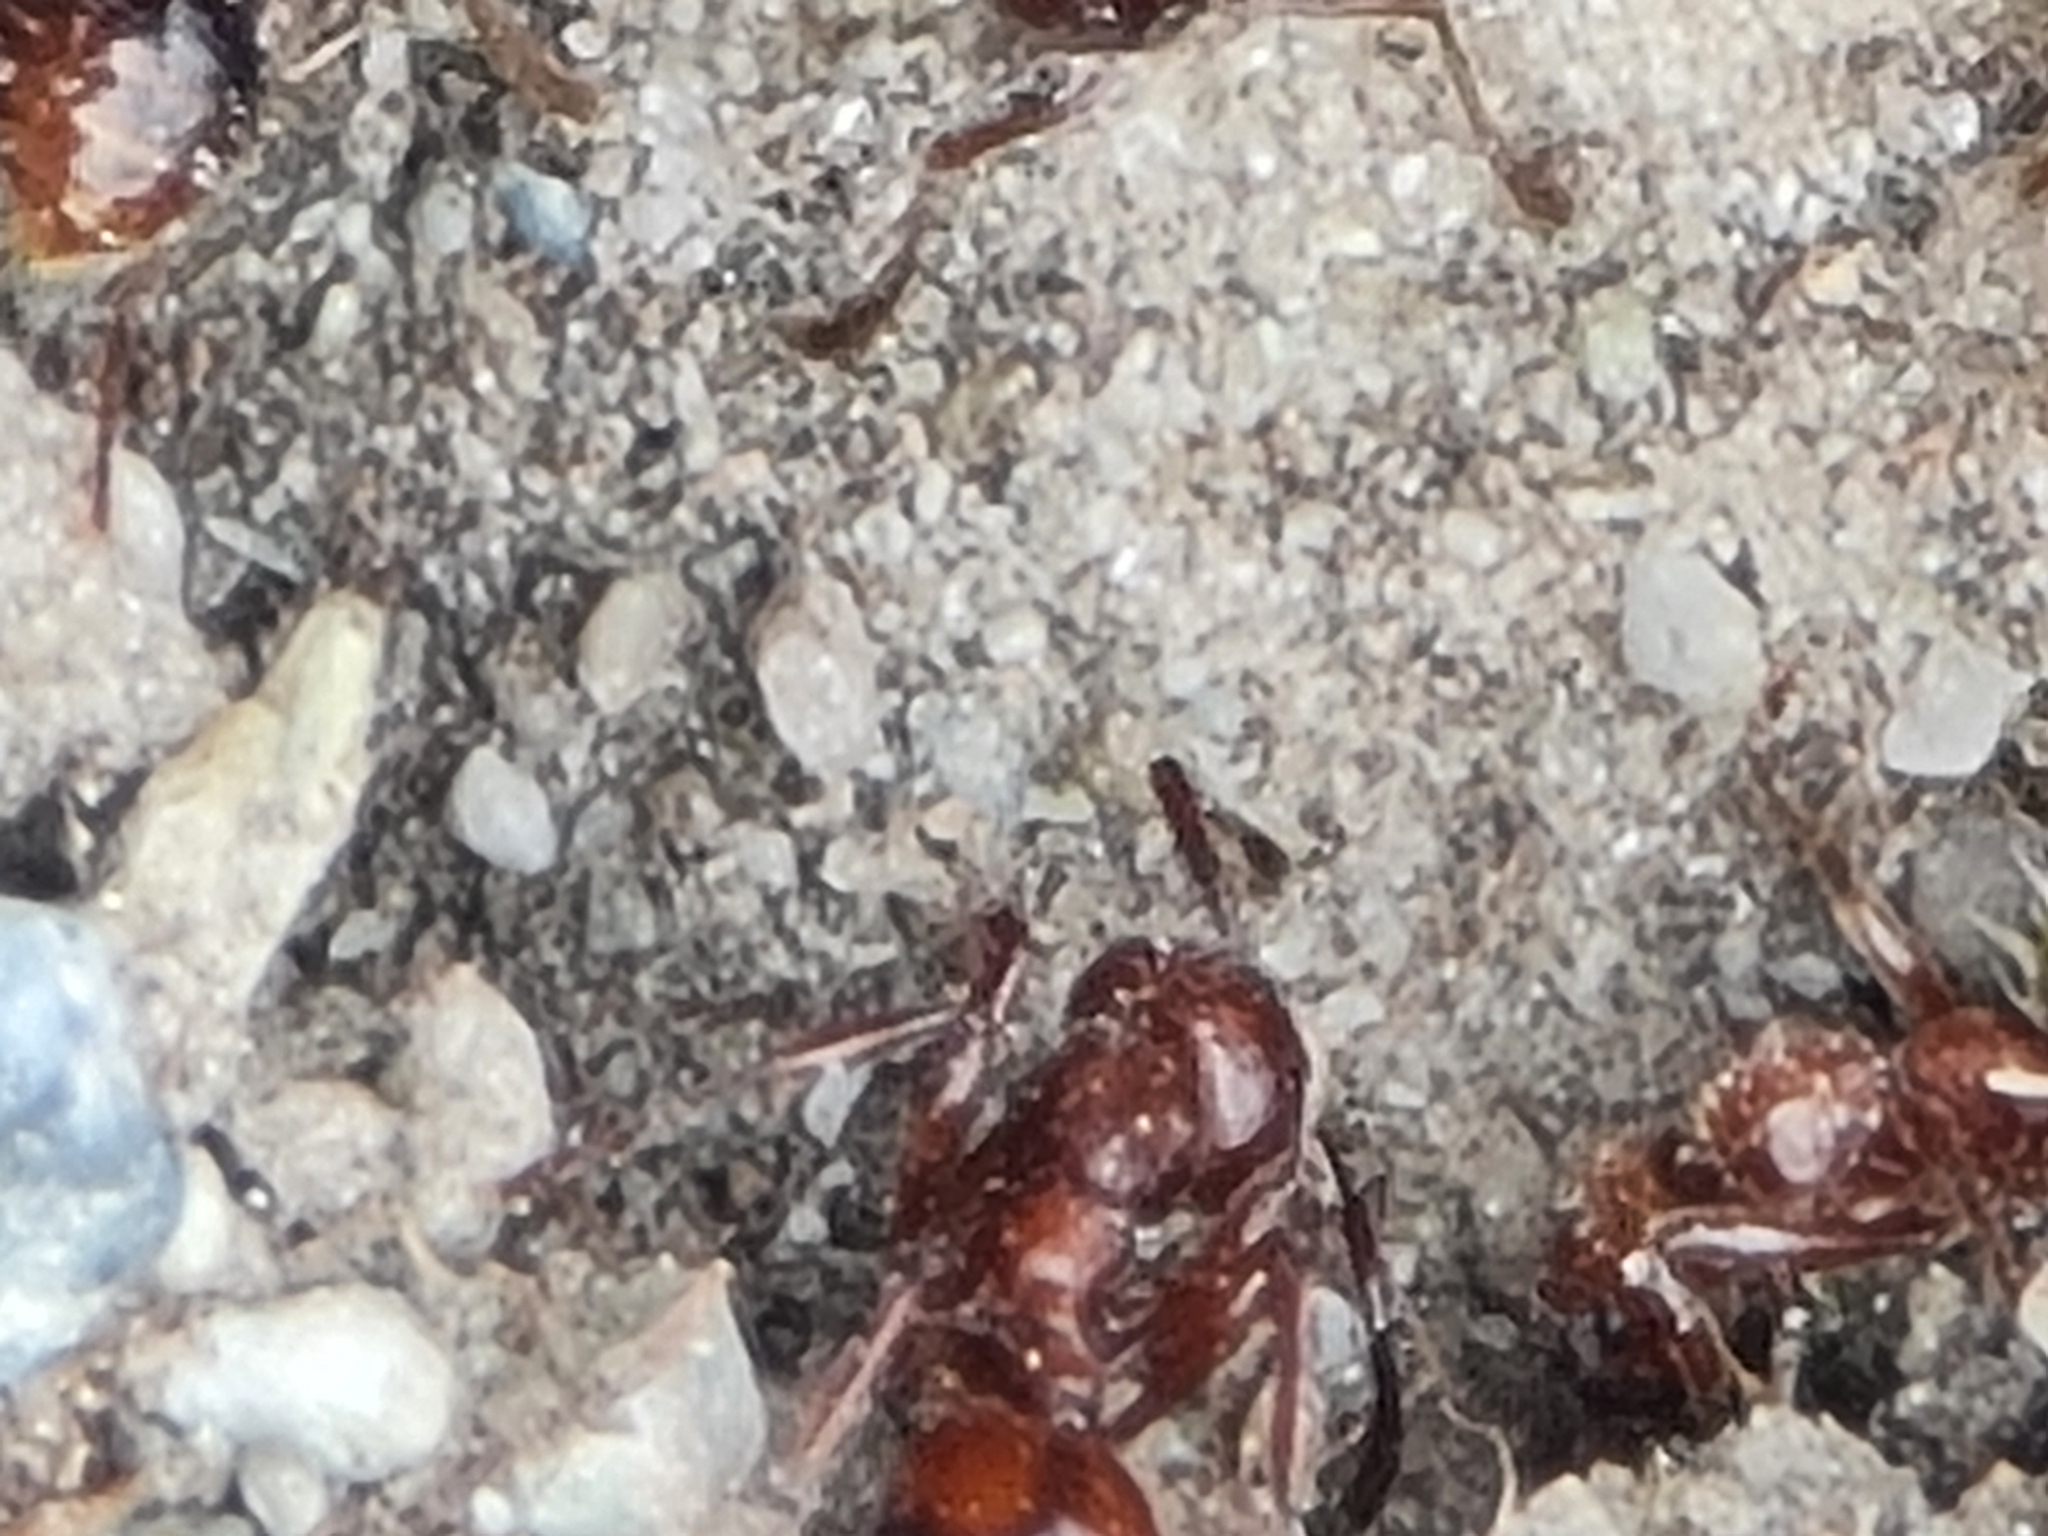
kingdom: Animalia
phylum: Arthropoda
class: Insecta
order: Hymenoptera
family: Formicidae
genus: Manica
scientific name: Manica rubida
